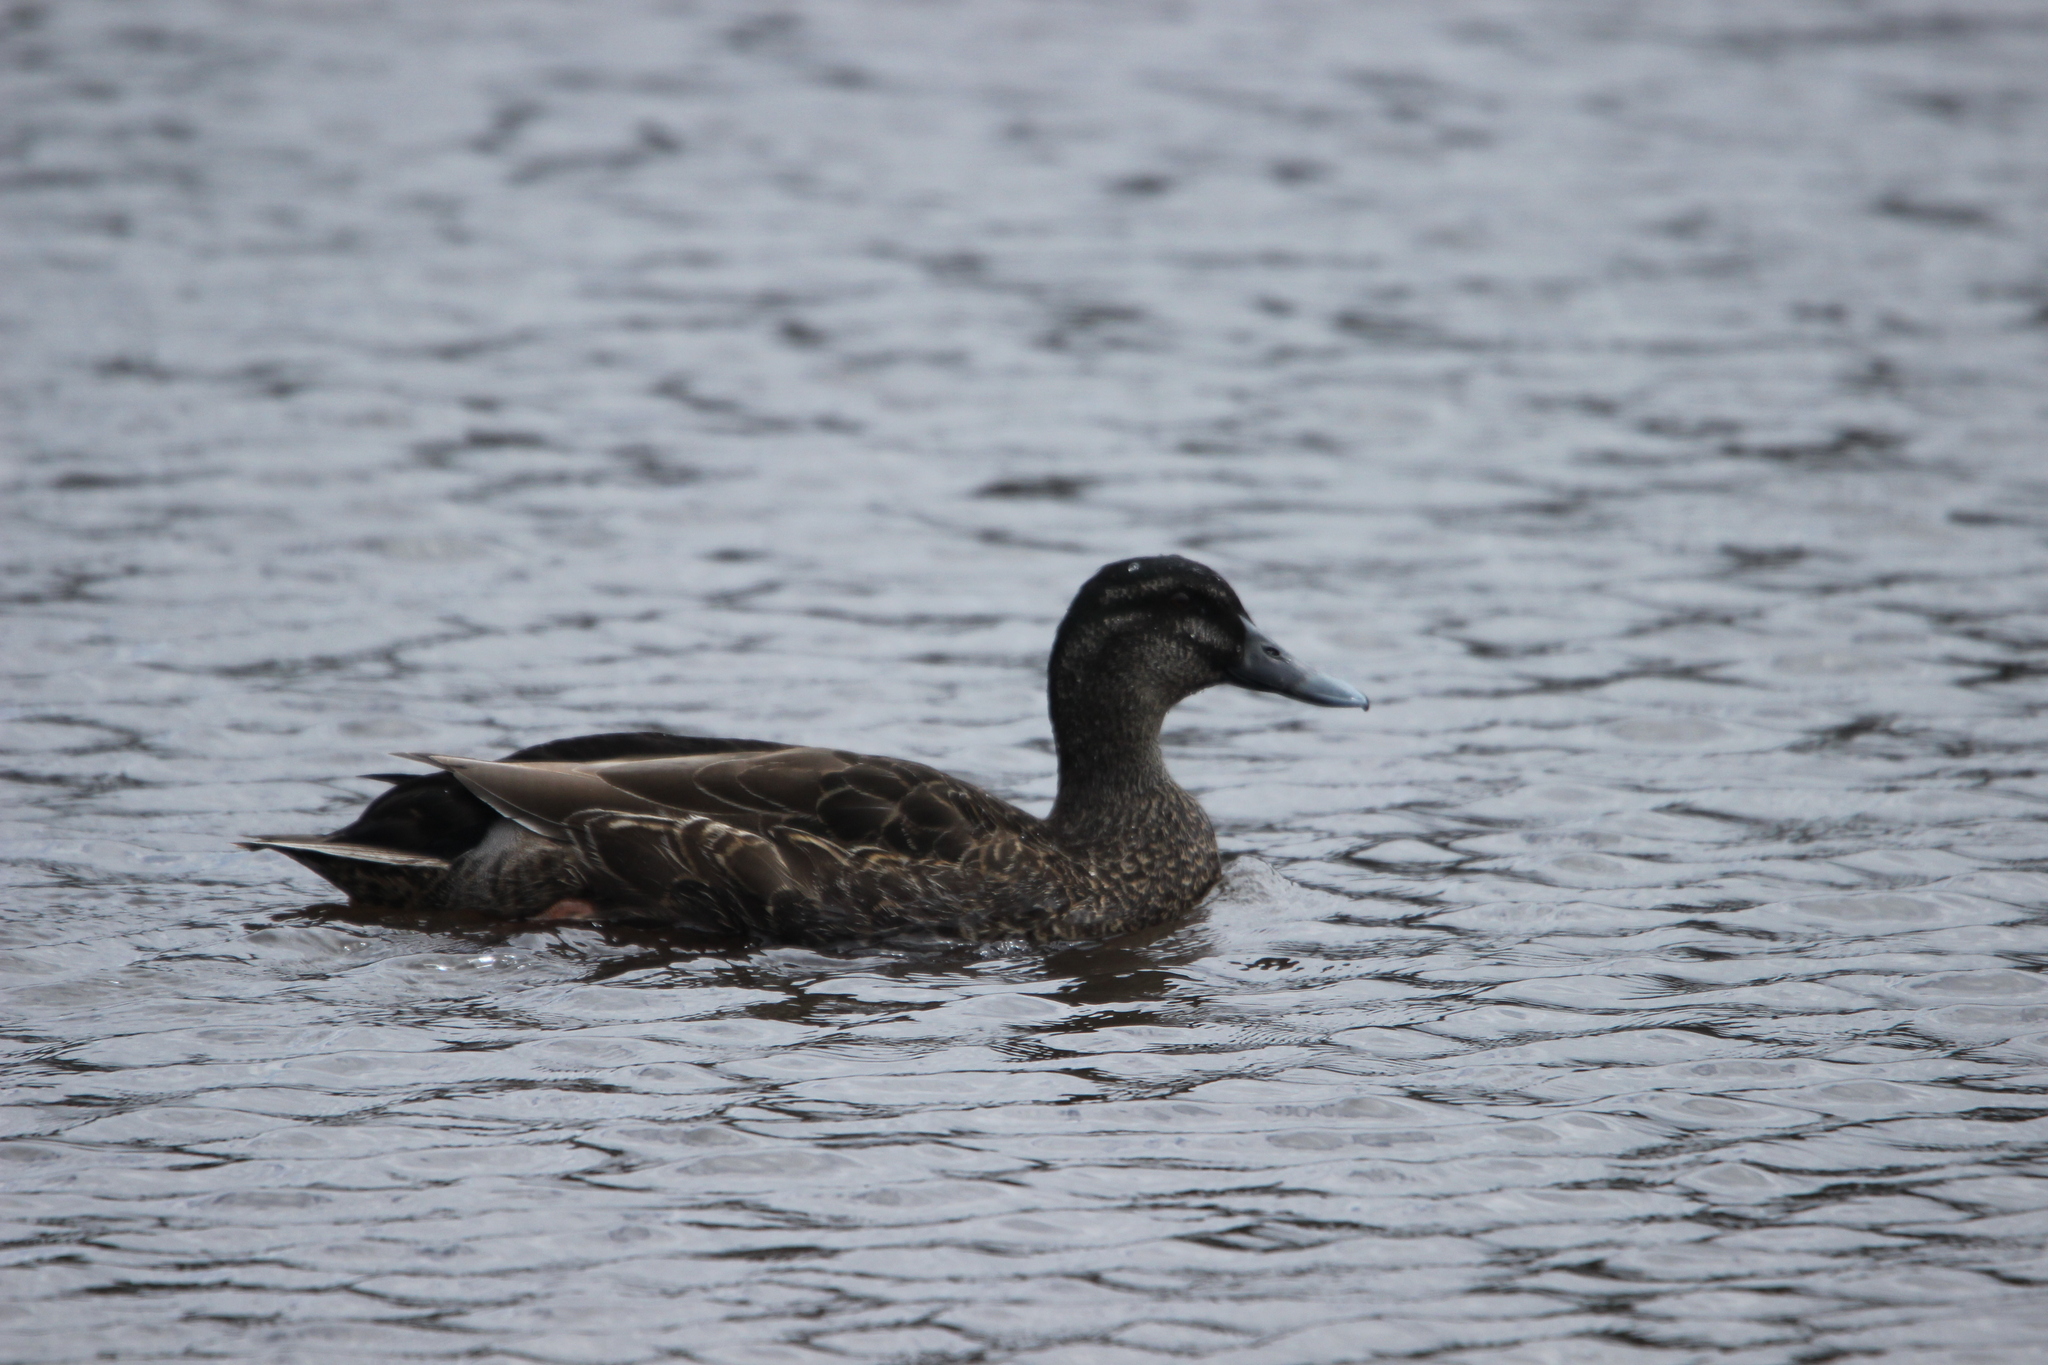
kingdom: Animalia
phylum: Chordata
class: Aves
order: Anseriformes
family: Anatidae
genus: Anas
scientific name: Anas
